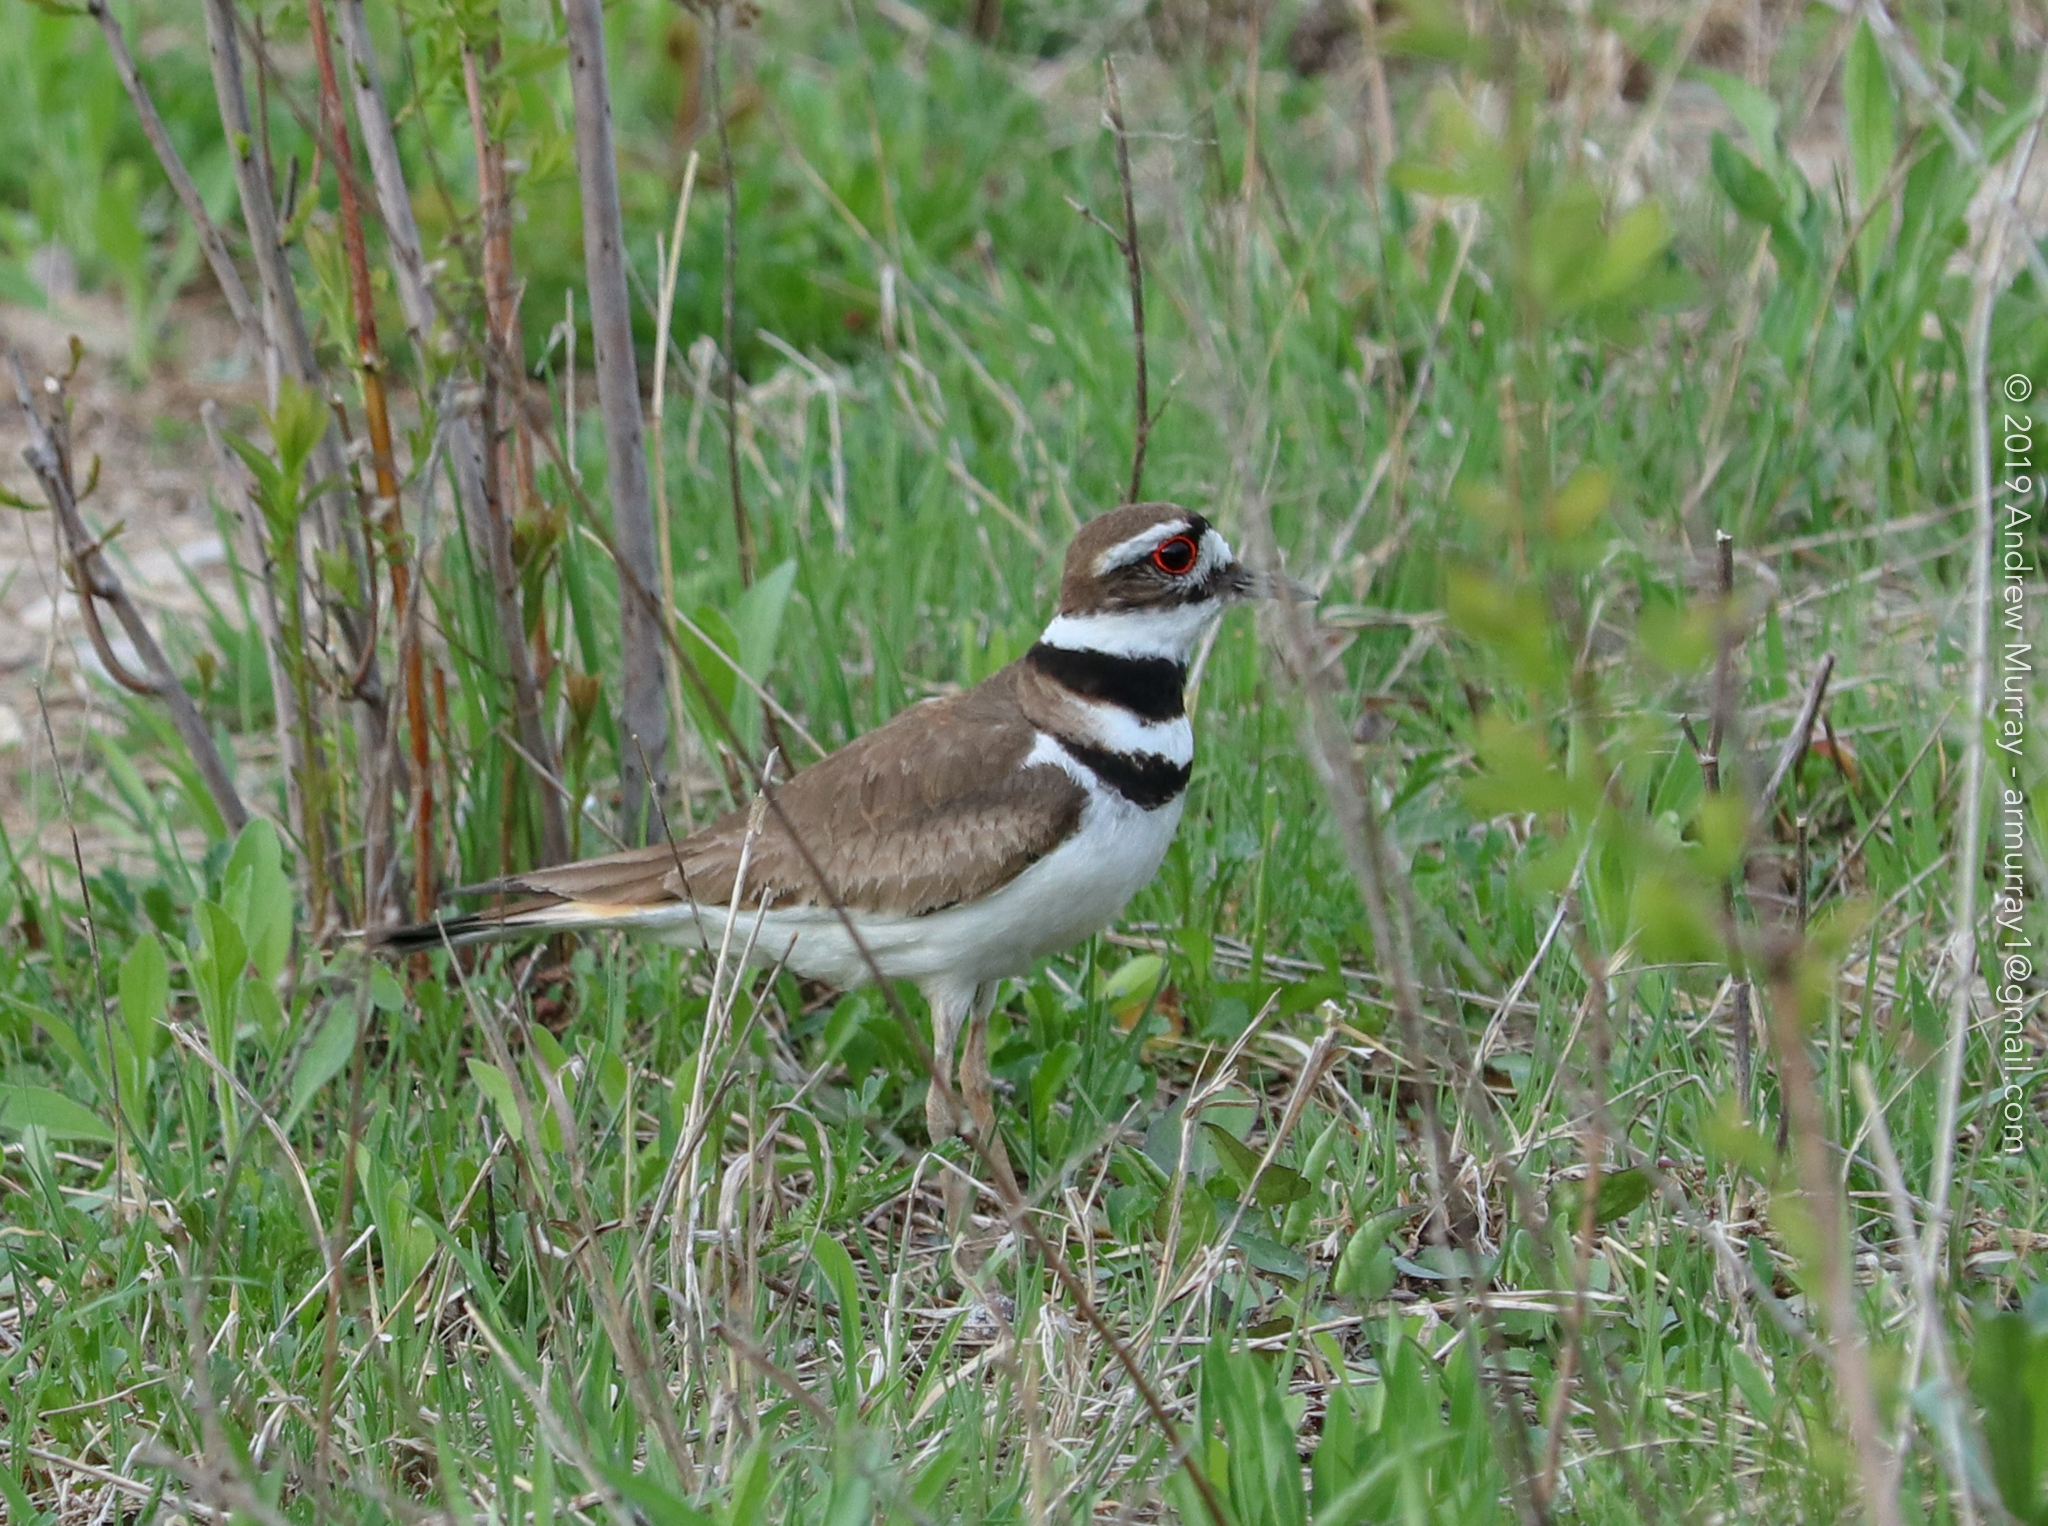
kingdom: Animalia
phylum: Chordata
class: Aves
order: Charadriiformes
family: Charadriidae
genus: Charadrius
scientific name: Charadrius vociferus
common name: Killdeer
